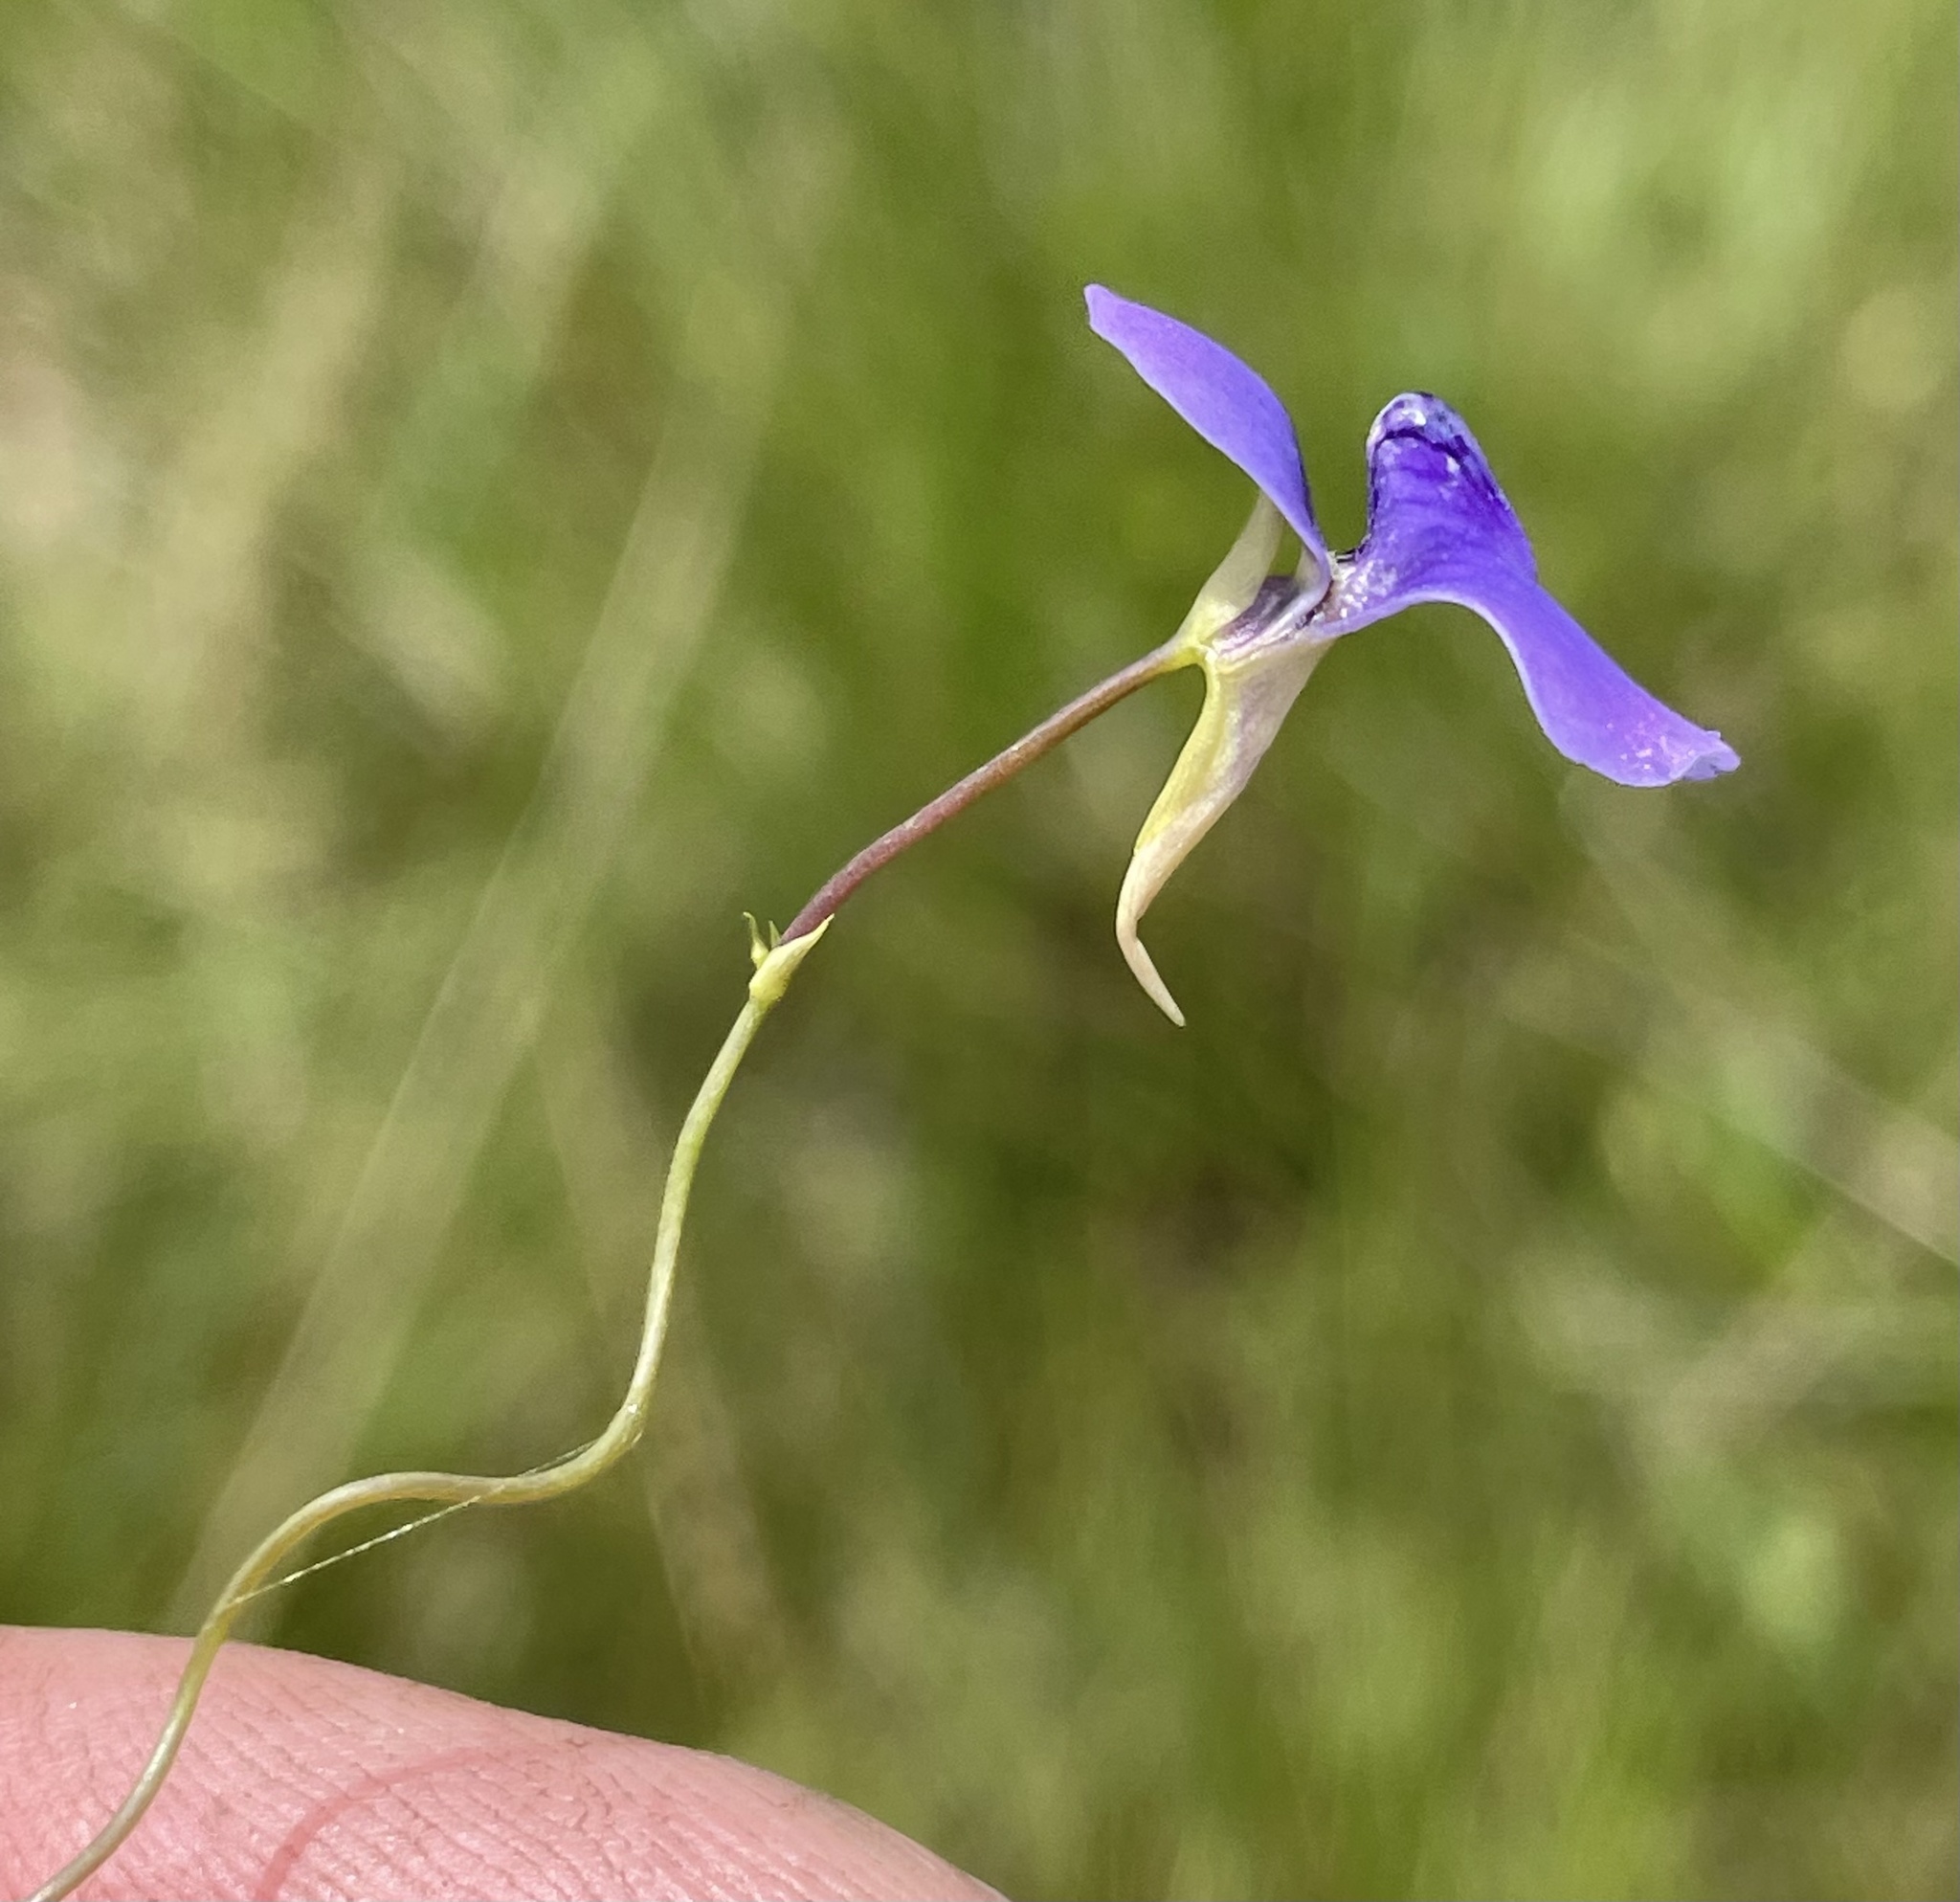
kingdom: Plantae
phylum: Tracheophyta
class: Magnoliopsida
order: Lamiales
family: Lentibulariaceae
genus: Utricularia
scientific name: Utricularia spiralis
